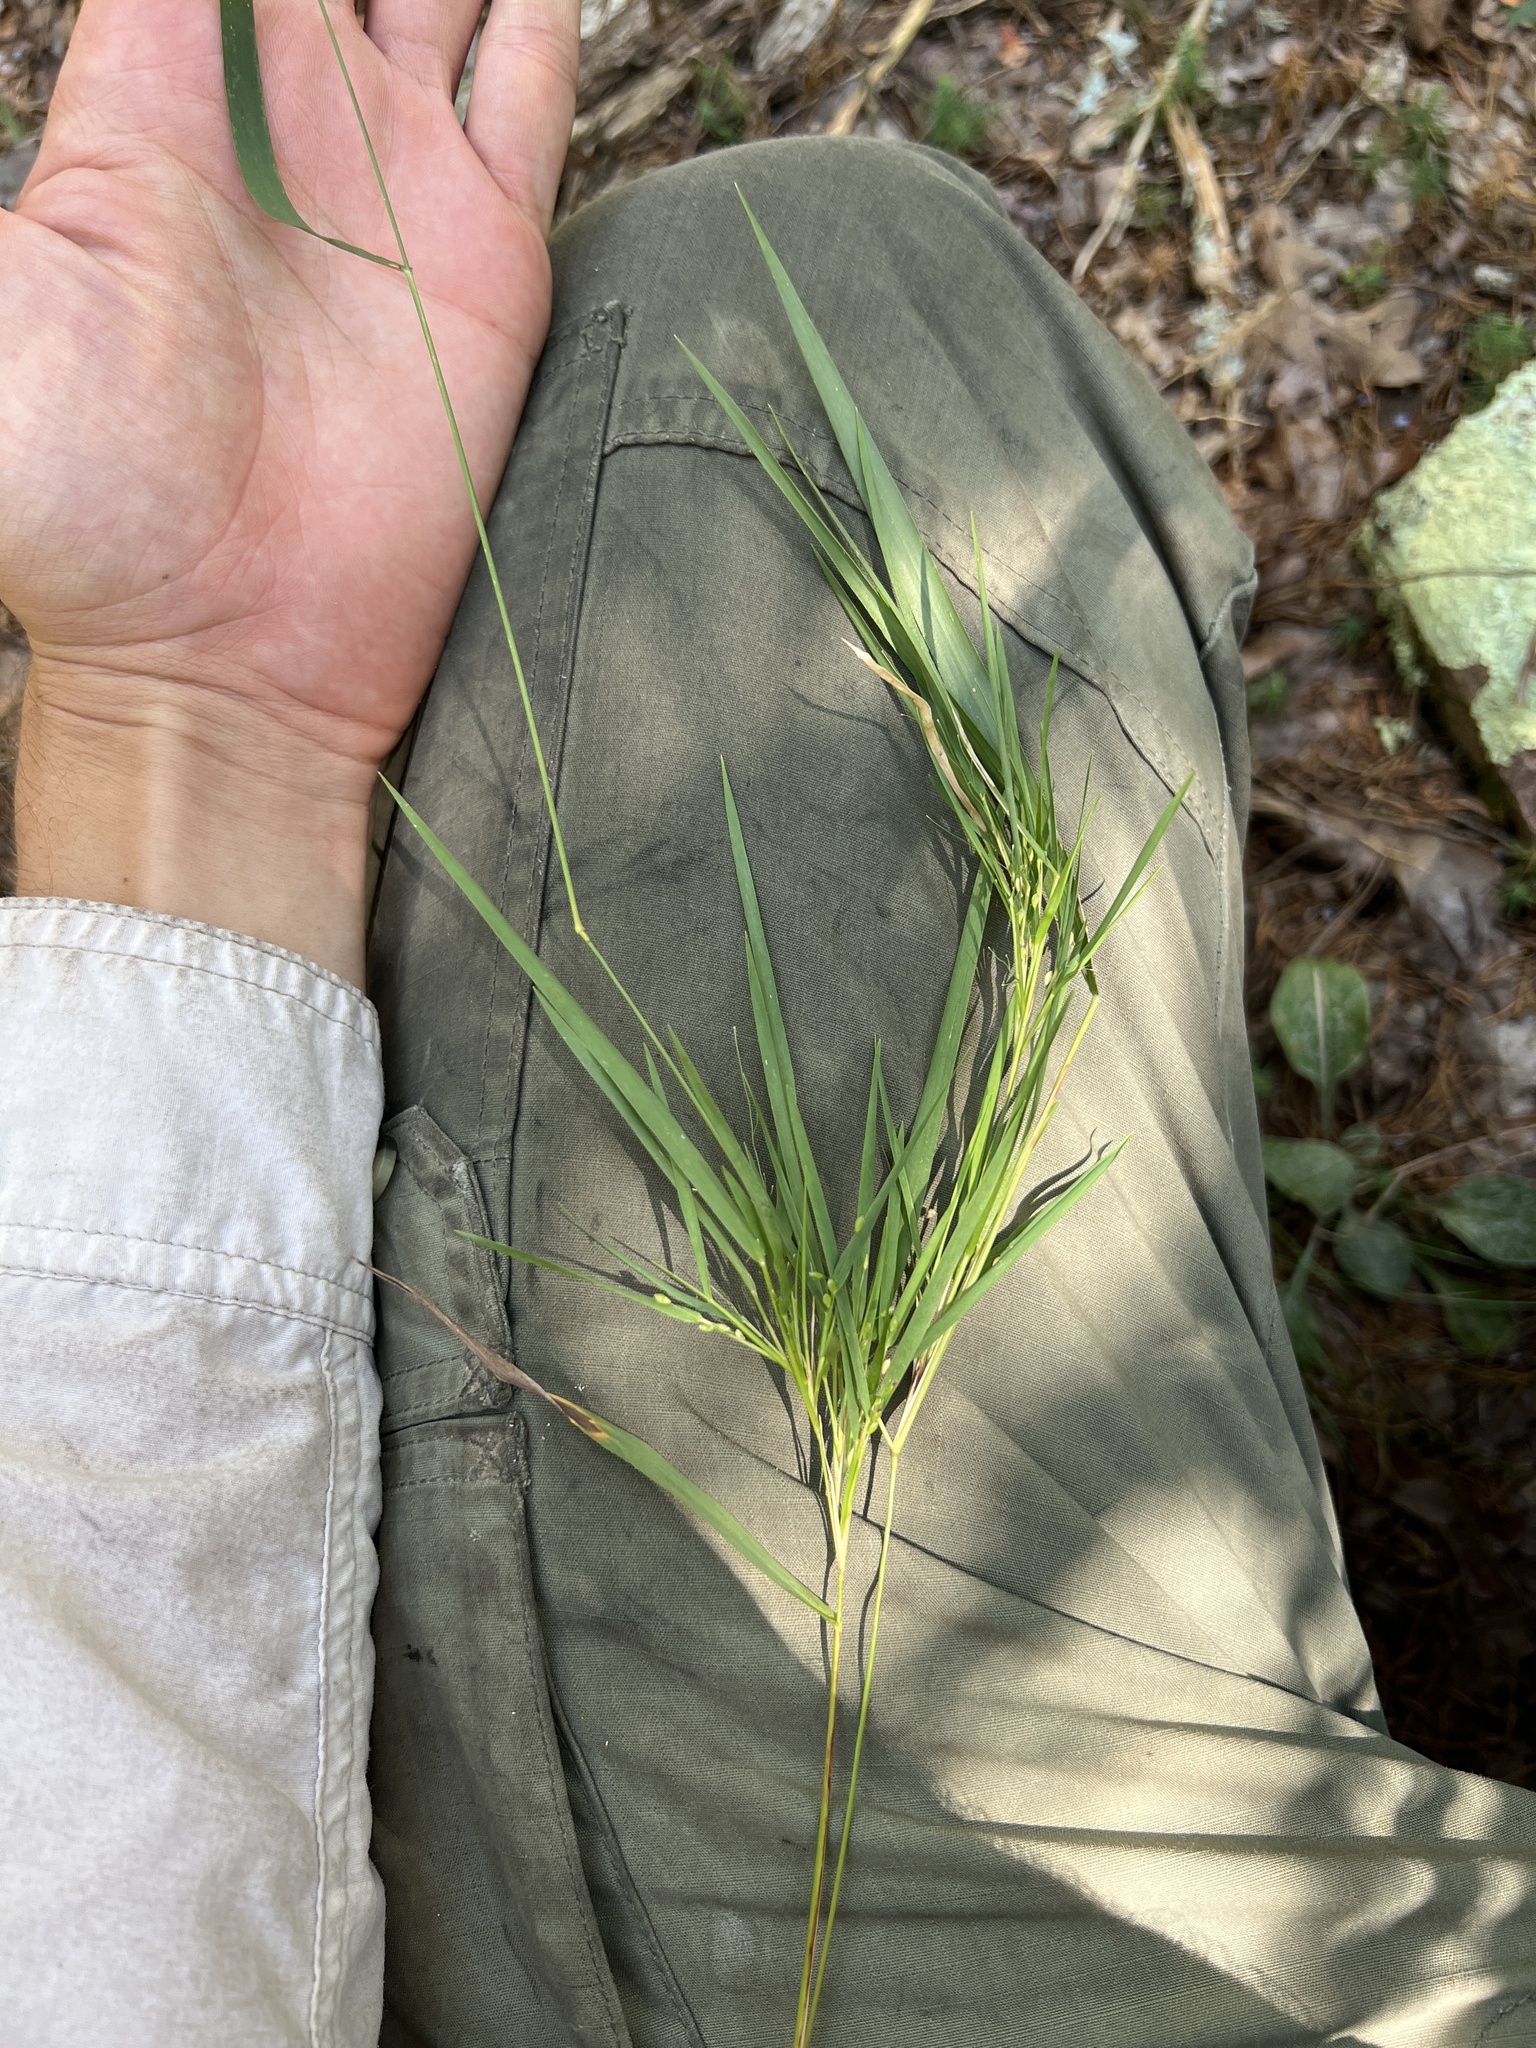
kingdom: Plantae
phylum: Tracheophyta
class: Liliopsida
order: Poales
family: Poaceae
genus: Dichanthelium
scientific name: Dichanthelium bicknellii
